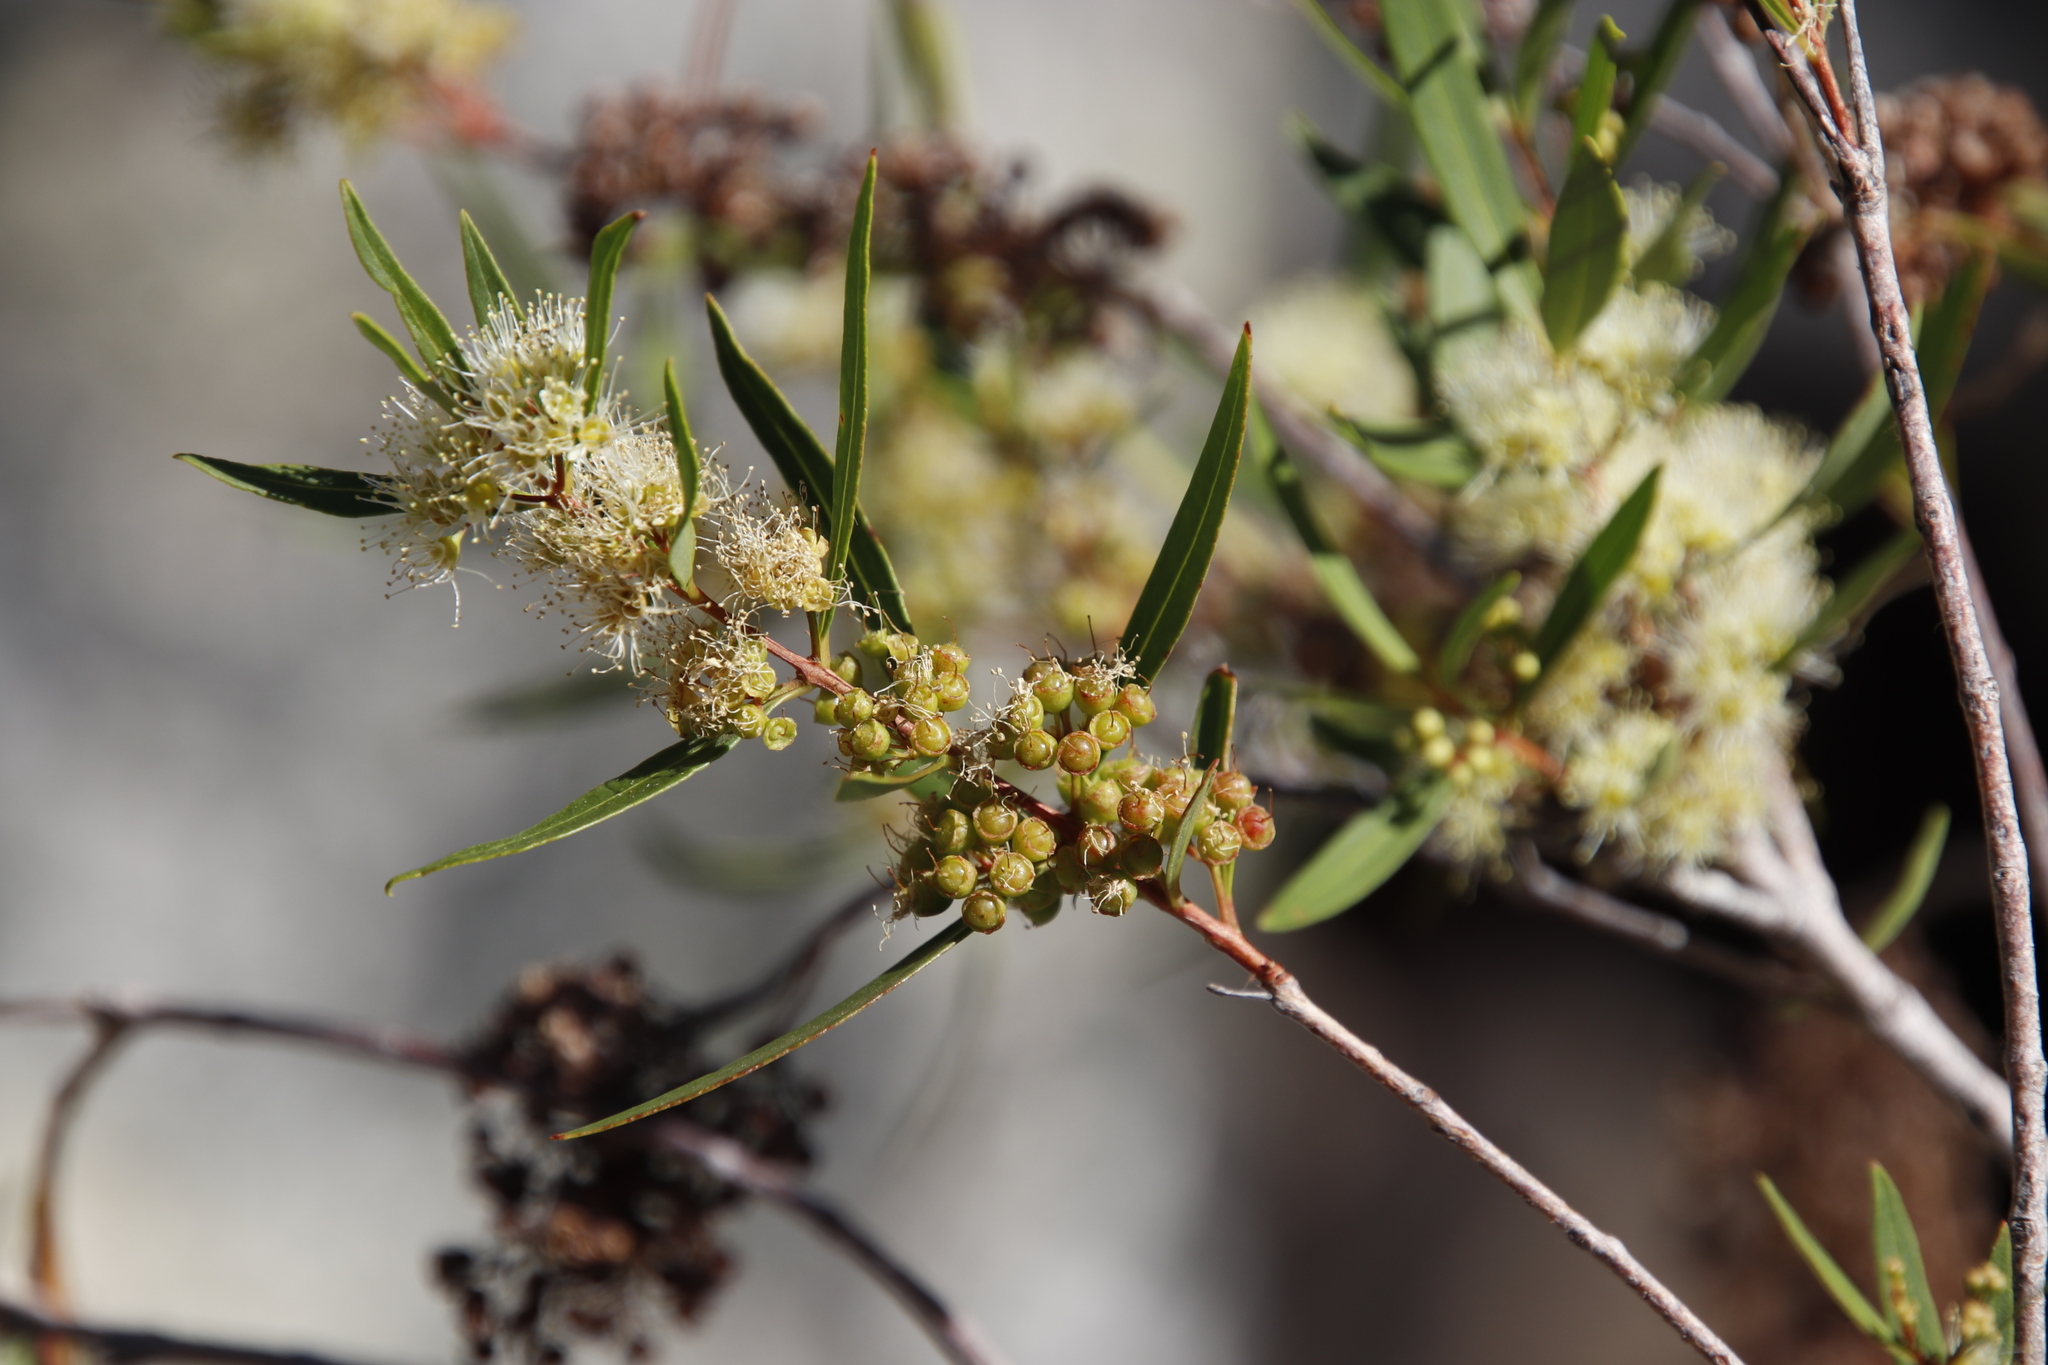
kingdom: Plantae
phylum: Tracheophyta
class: Magnoliopsida
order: Myrtales
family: Myrtaceae
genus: Callistemon
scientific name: Callistemon lanceolatus
